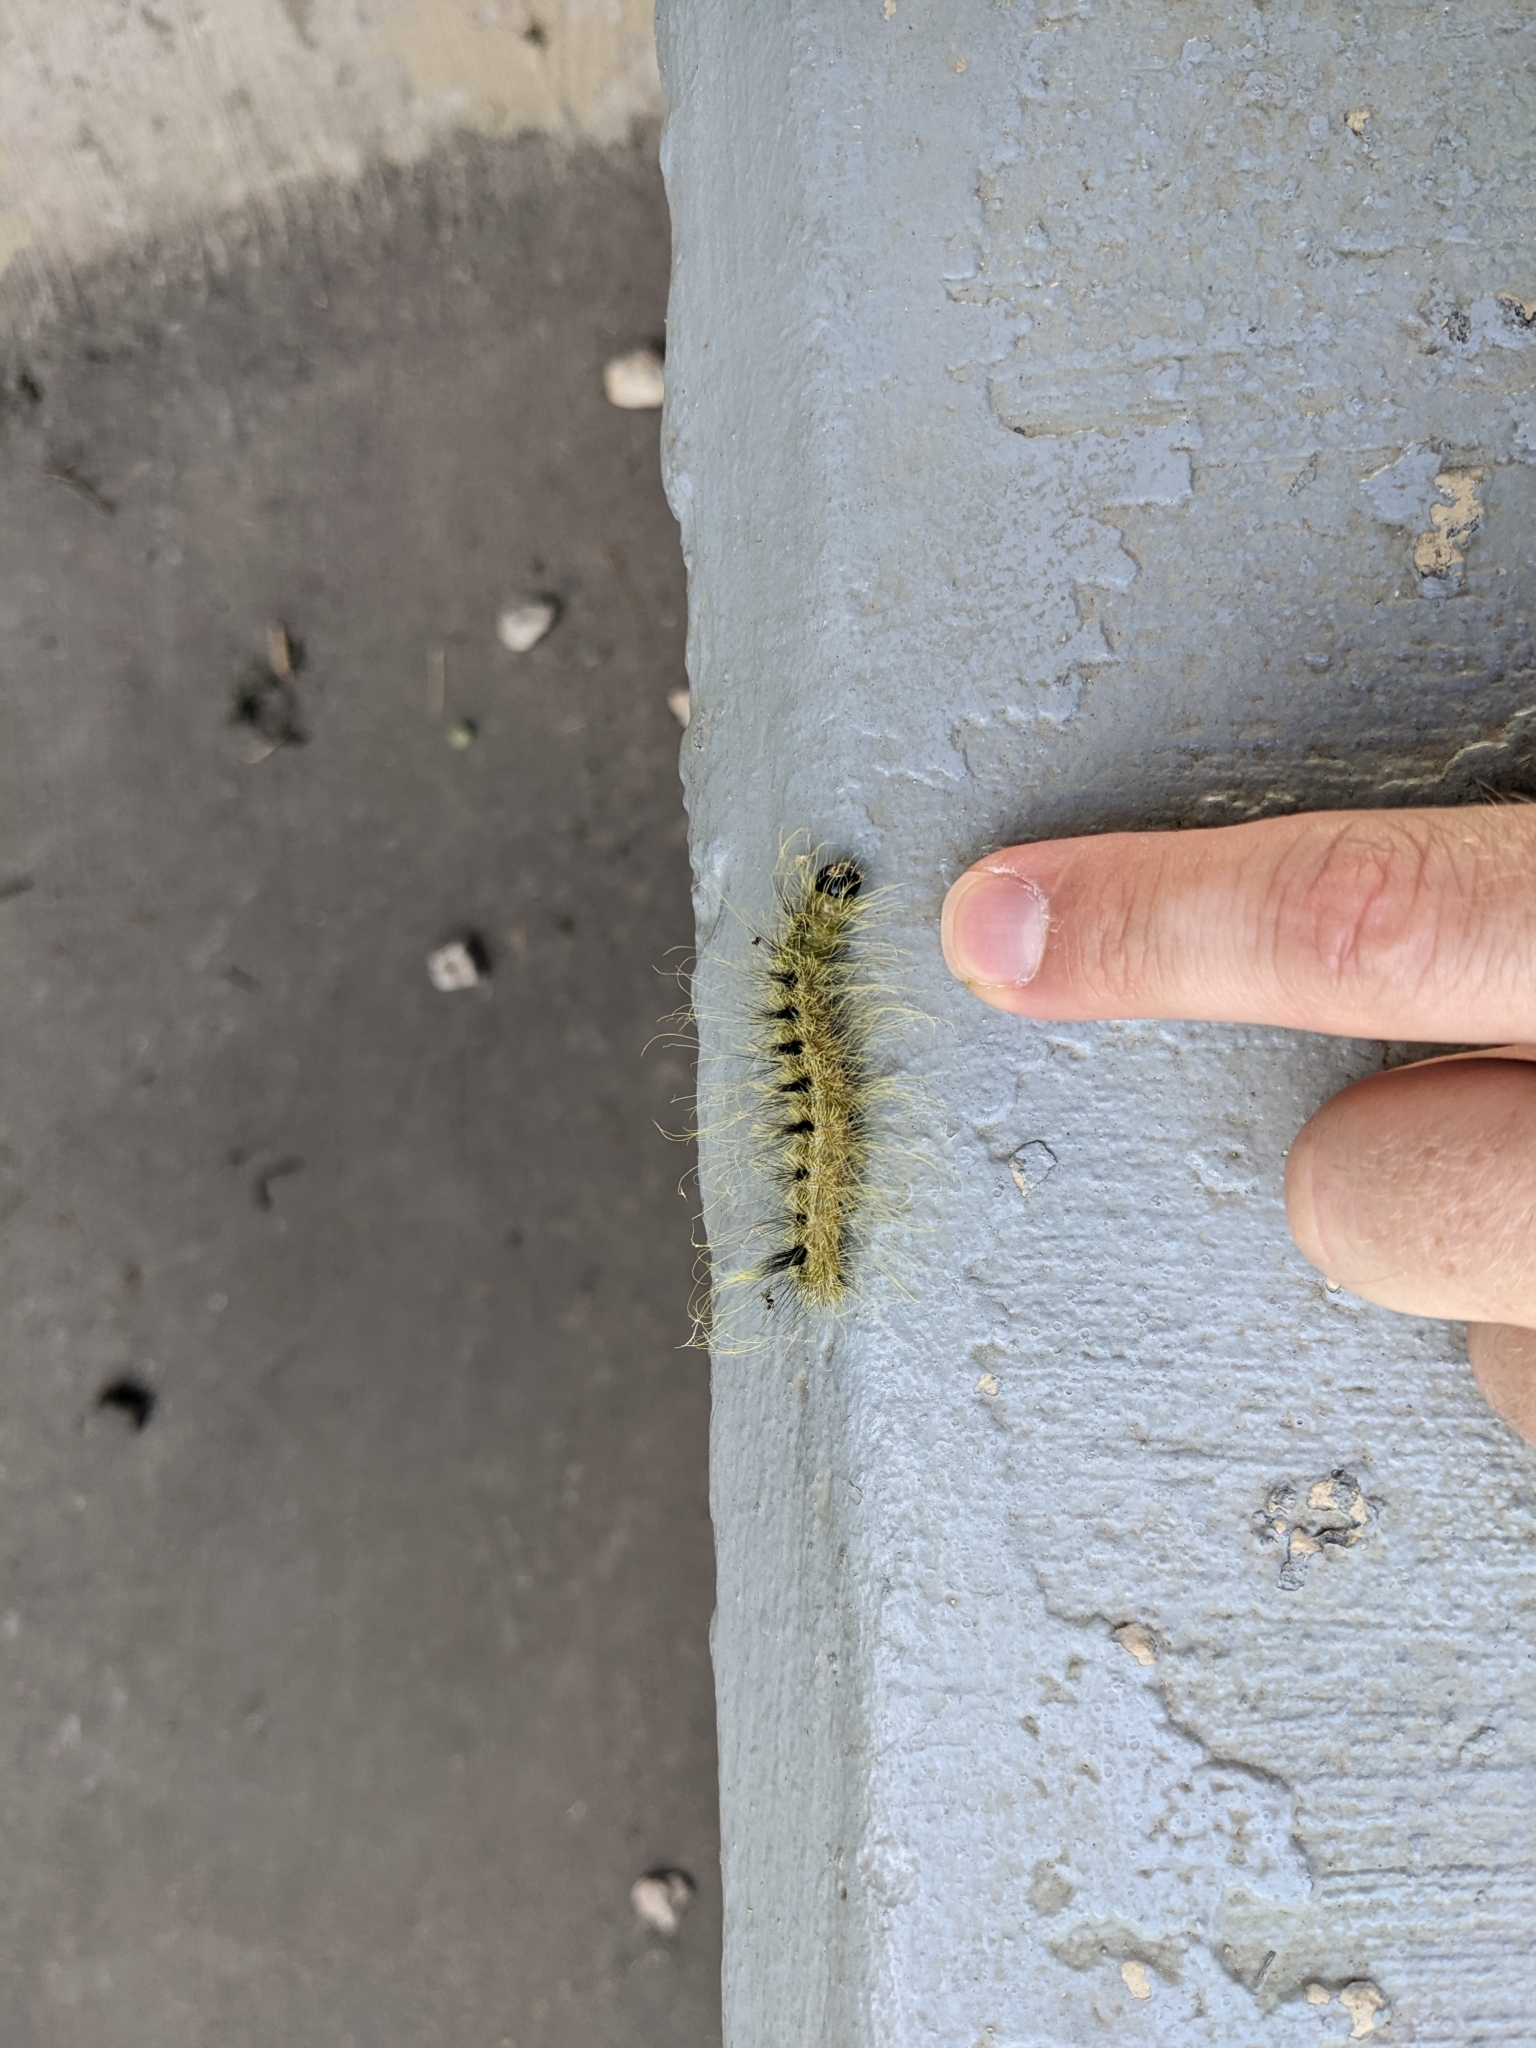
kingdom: Animalia
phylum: Arthropoda
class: Insecta
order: Lepidoptera
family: Noctuidae
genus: Acronicta
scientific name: Acronicta rubricoma
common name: Hackberry dagger
